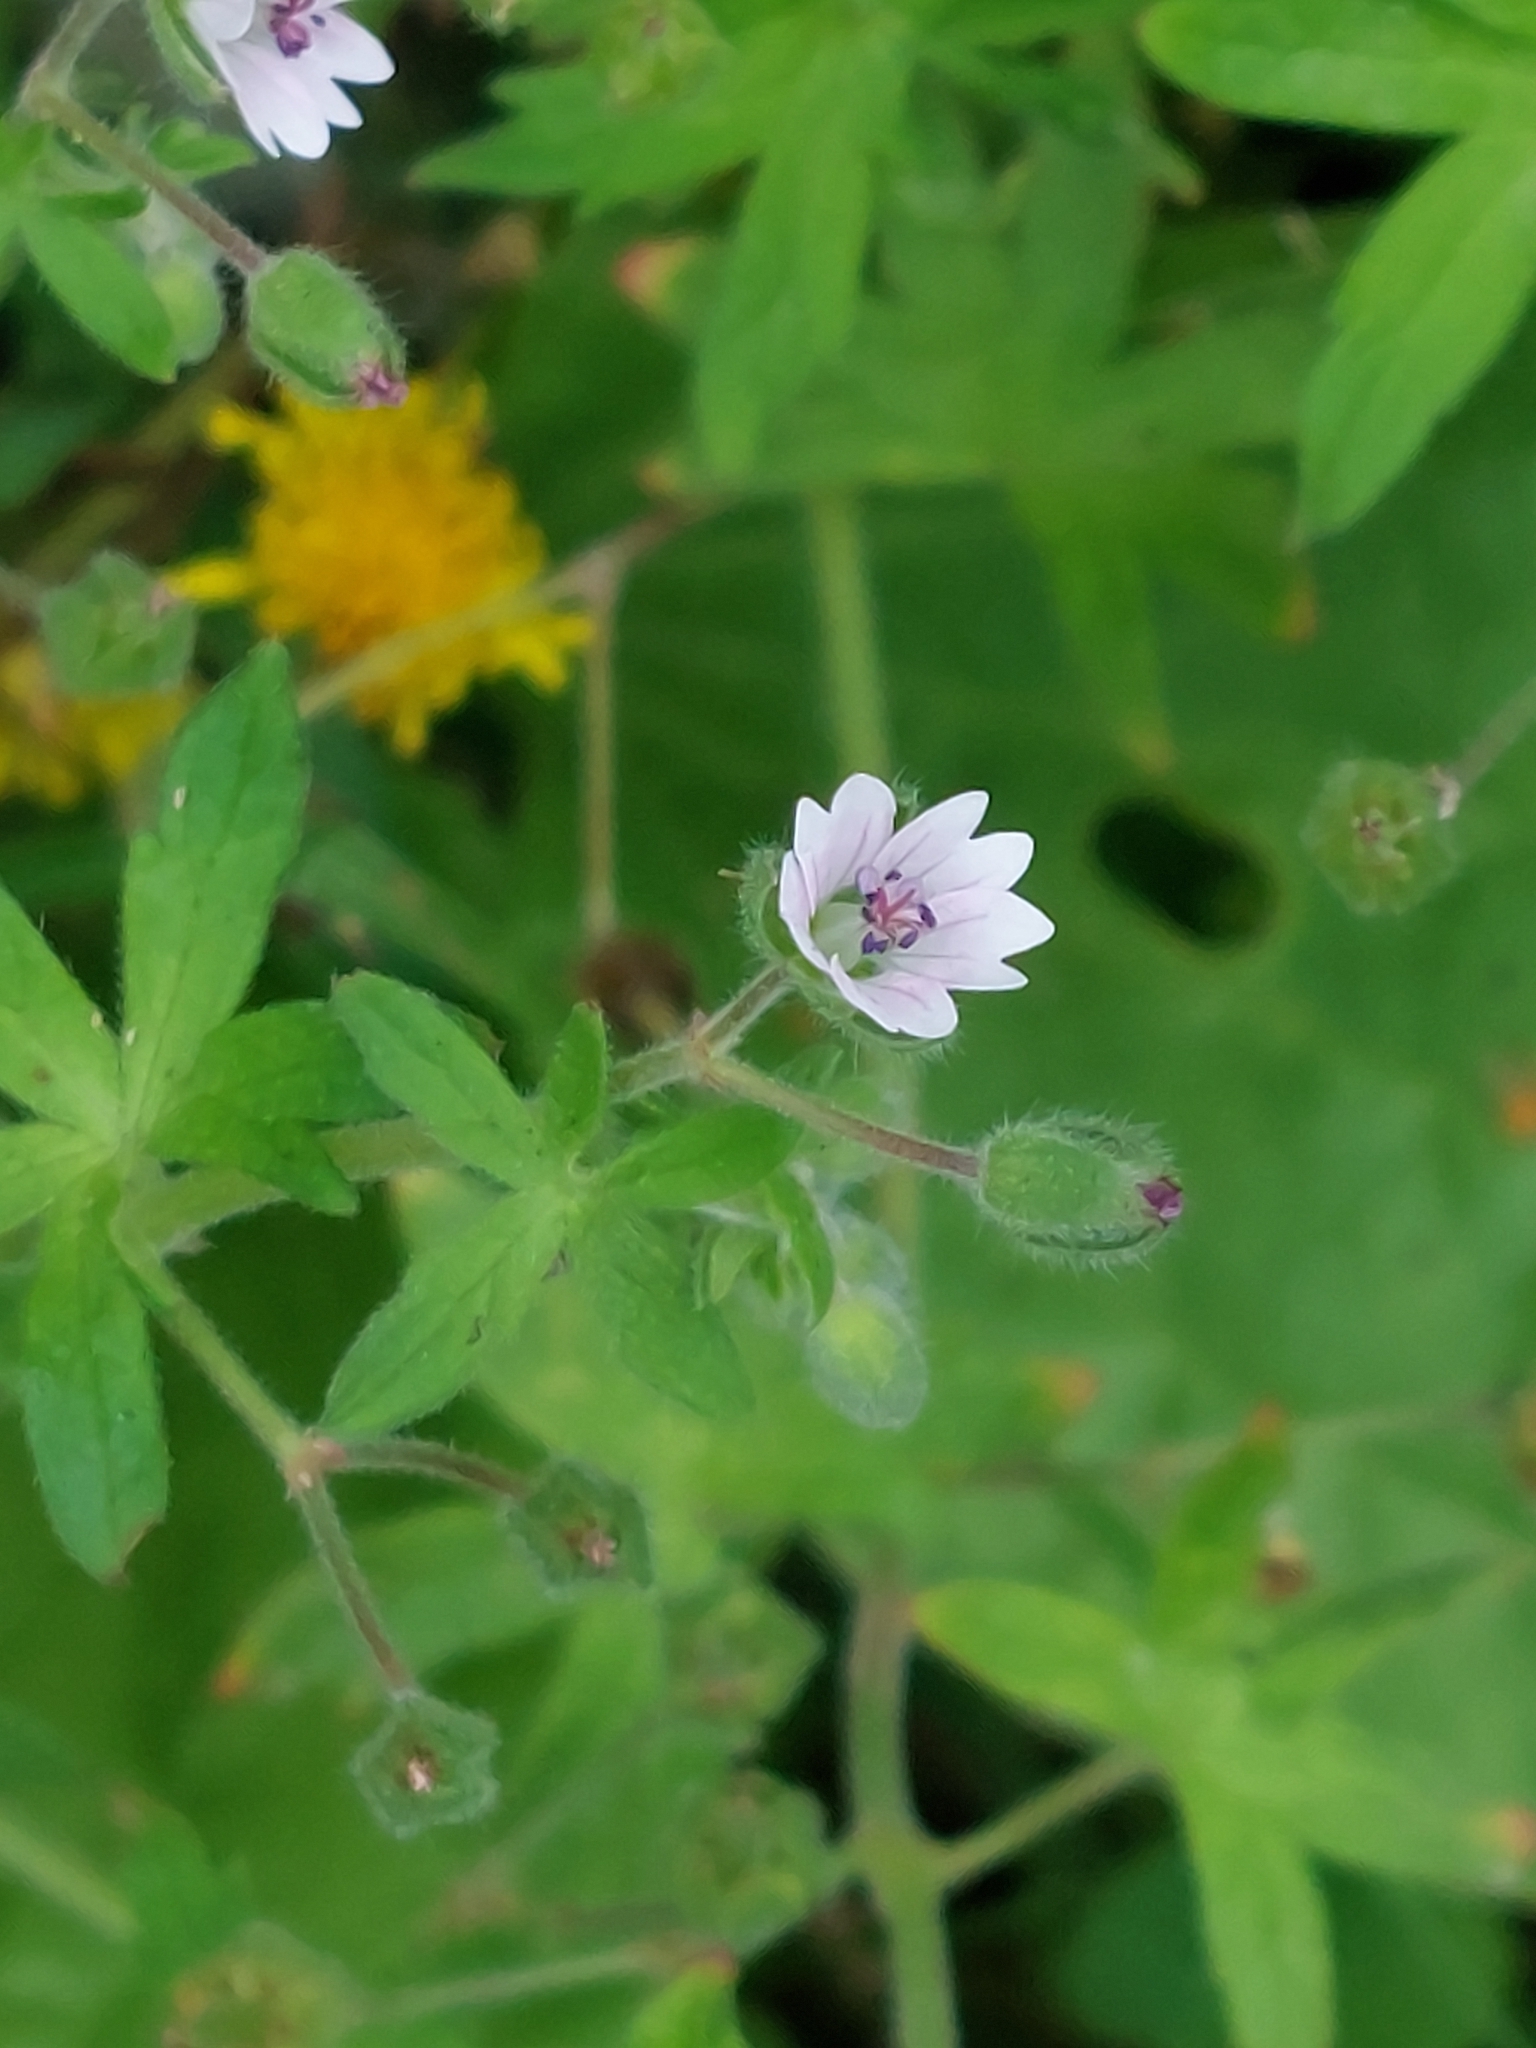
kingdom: Plantae
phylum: Tracheophyta
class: Magnoliopsida
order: Geraniales
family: Geraniaceae
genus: Geranium
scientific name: Geranium pusillum
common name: Small geranium
